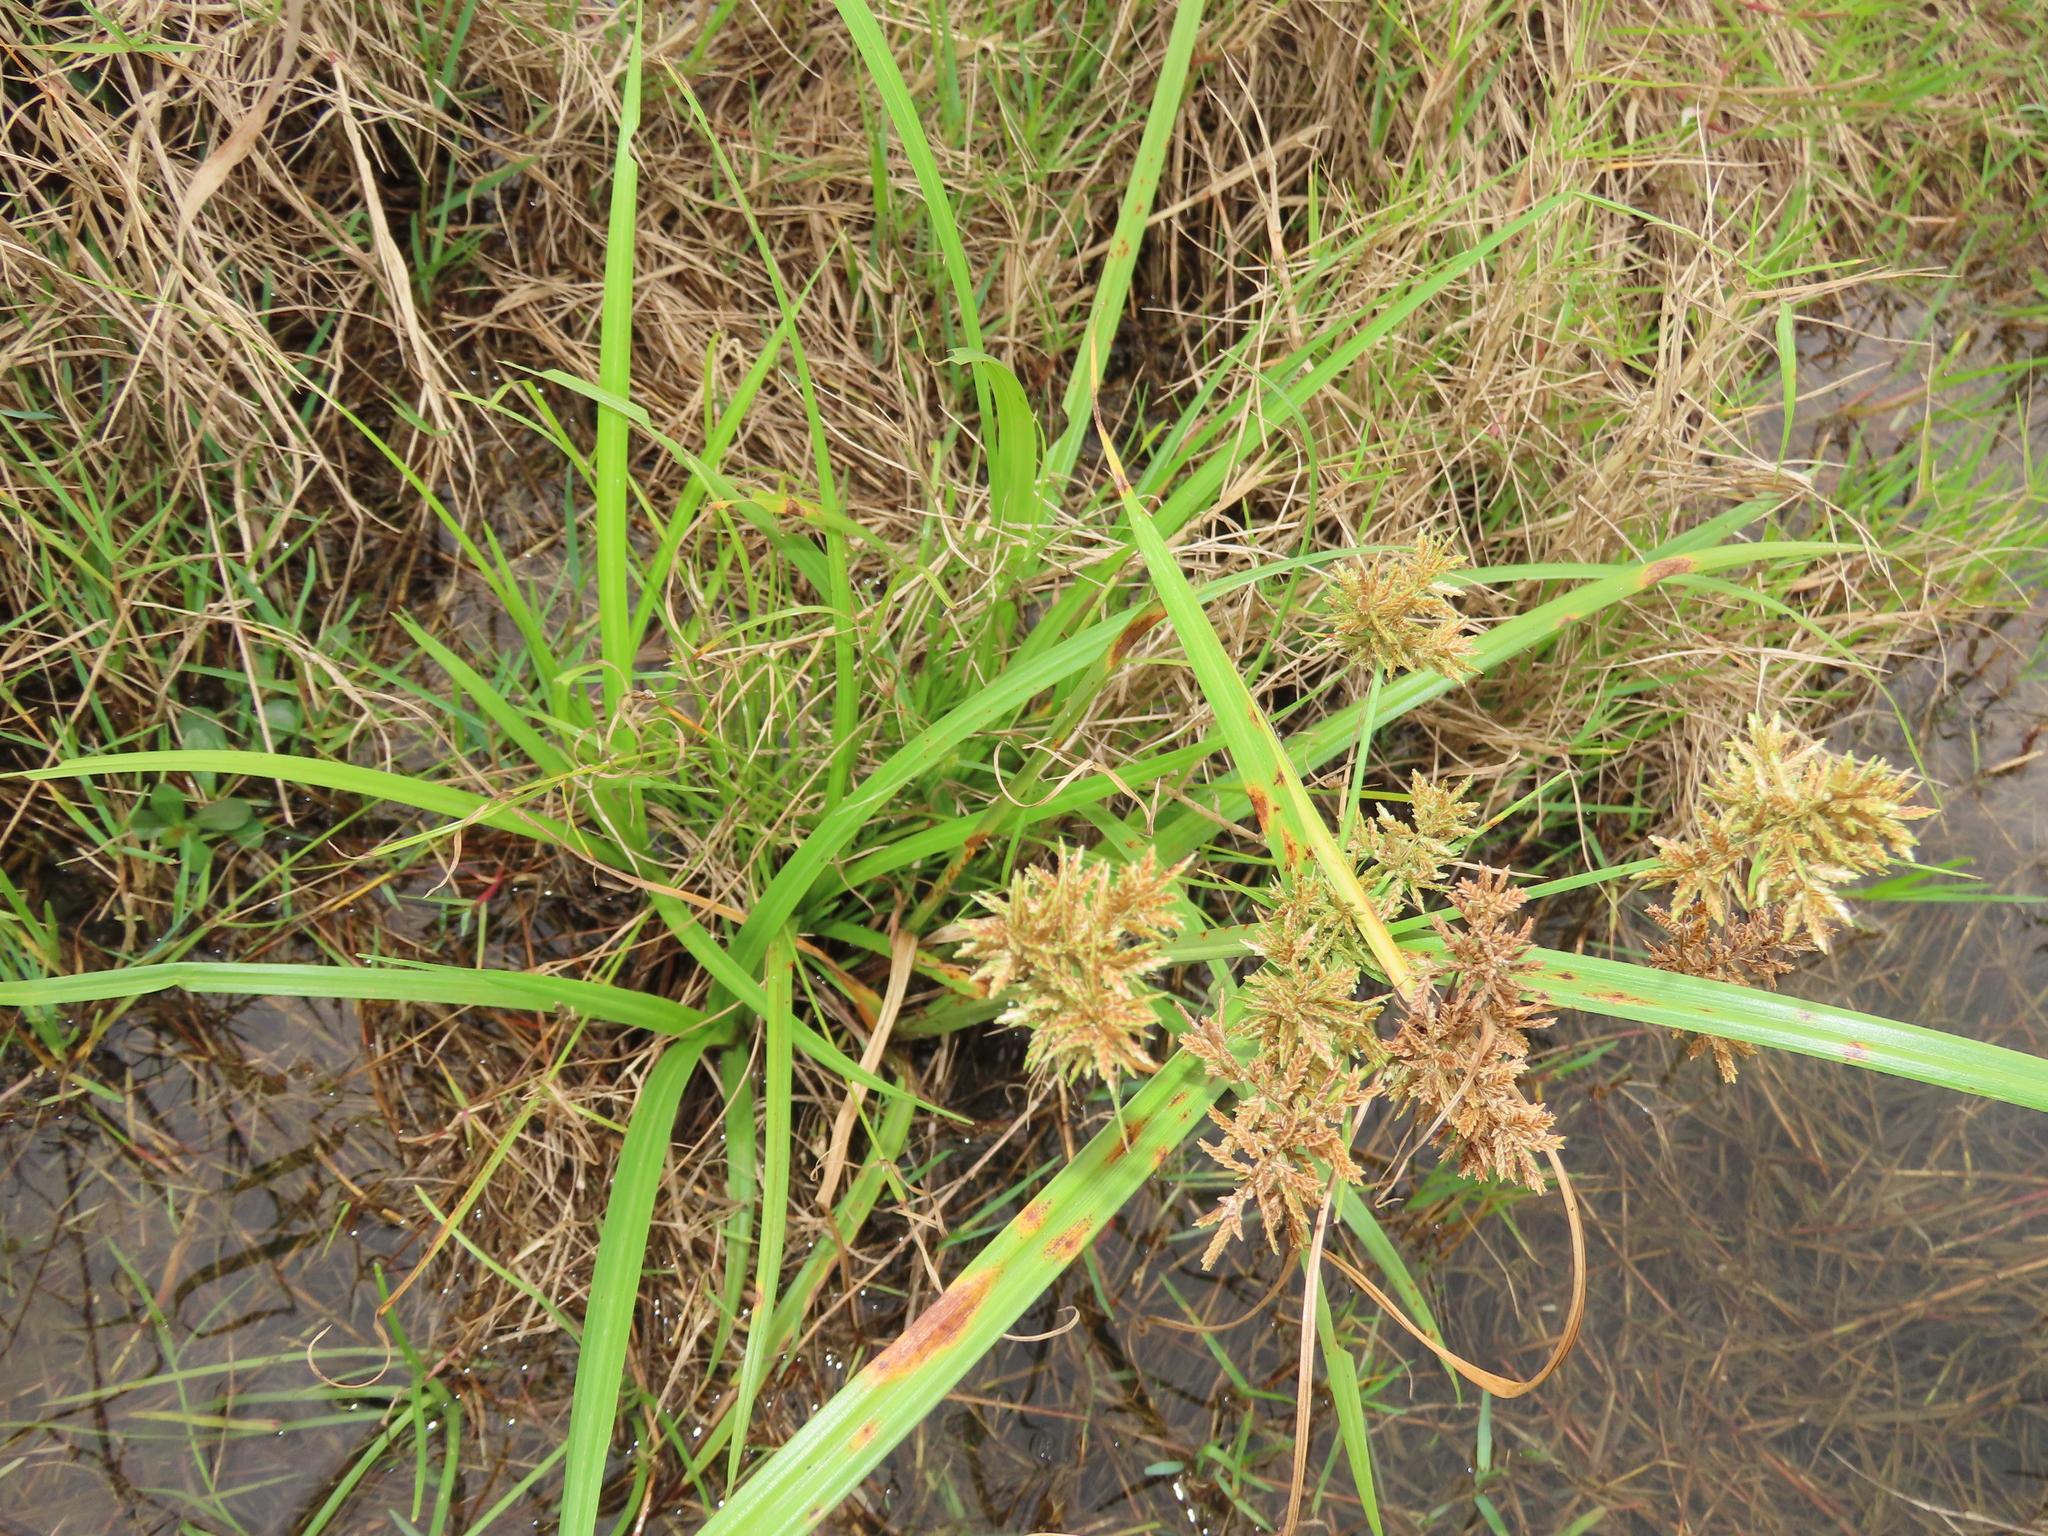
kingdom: Plantae
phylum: Tracheophyta
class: Liliopsida
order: Poales
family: Cyperaceae
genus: Cyperus
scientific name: Cyperus pilosus
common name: Fuzzy flatsedge
